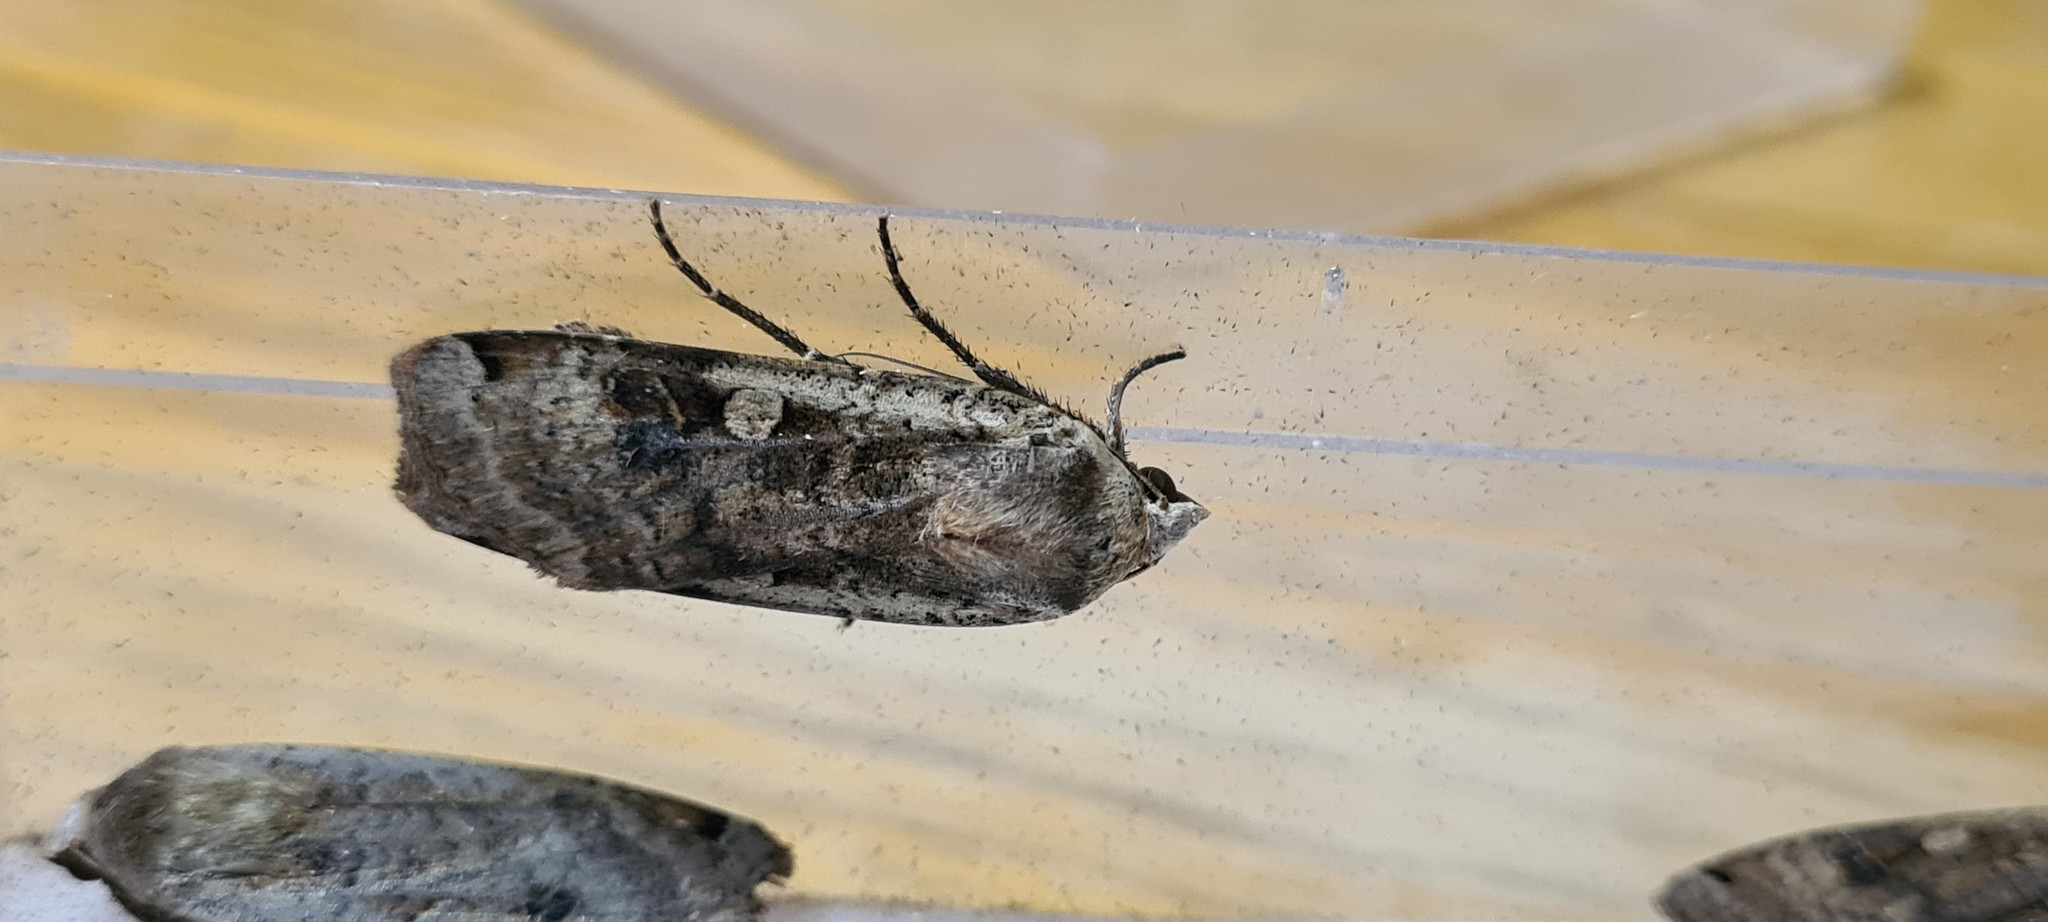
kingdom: Animalia
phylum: Arthropoda
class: Insecta
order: Lepidoptera
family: Noctuidae
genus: Noctua
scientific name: Noctua pronuba
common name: Large yellow underwing
